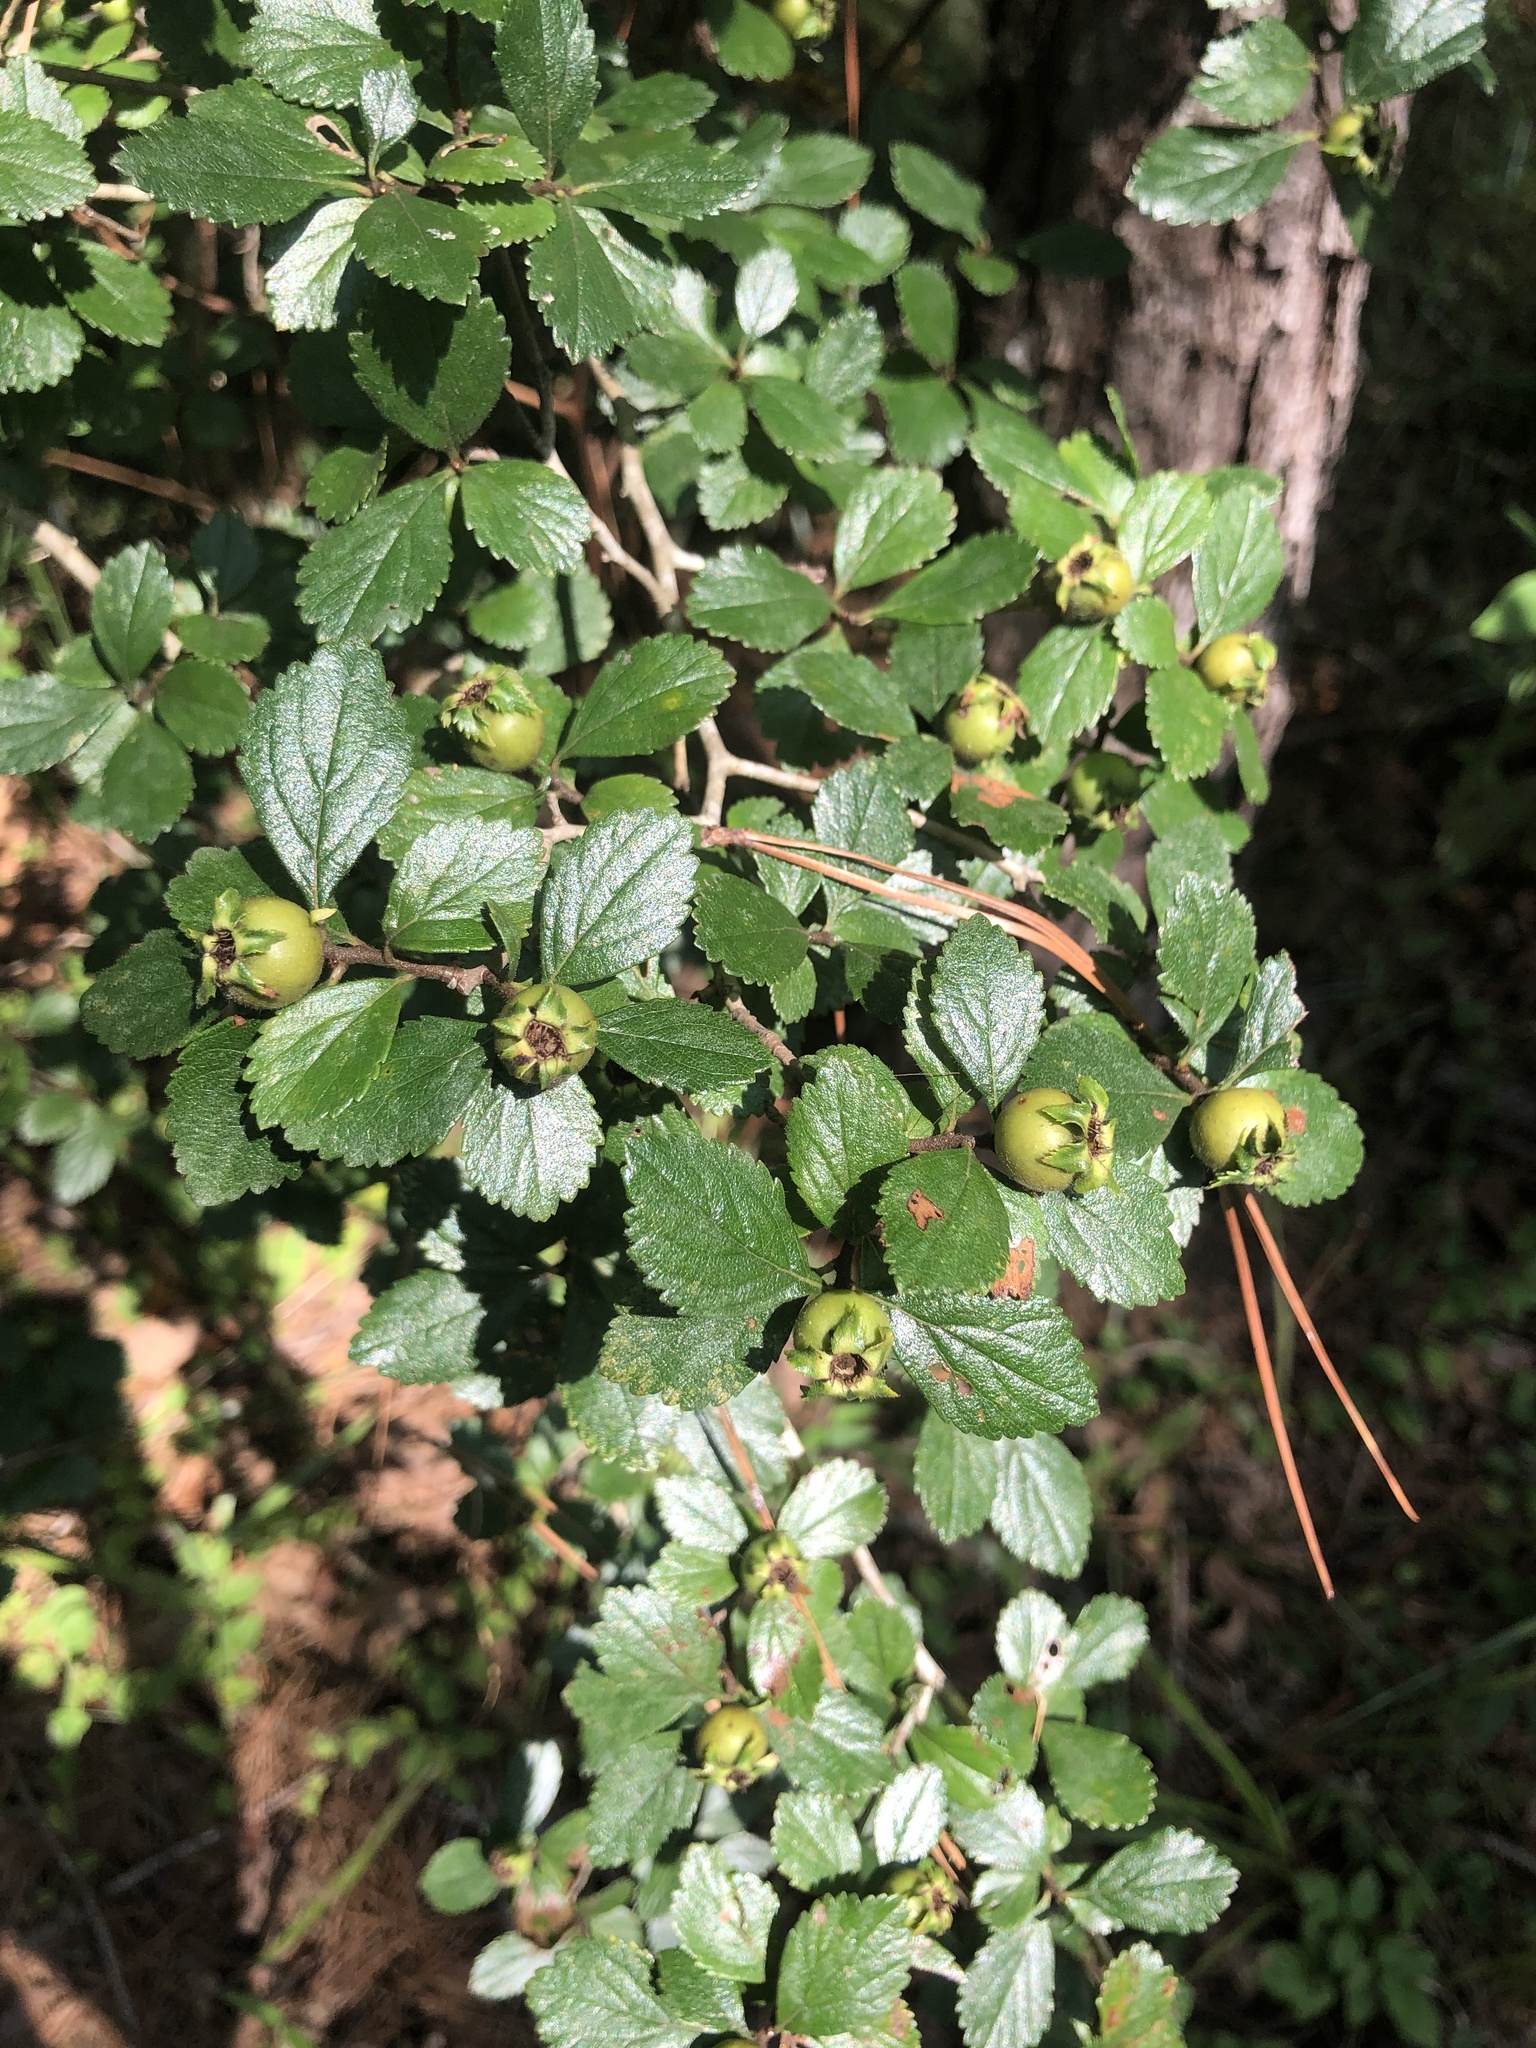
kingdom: Plantae
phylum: Tracheophyta
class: Magnoliopsida
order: Rosales
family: Rosaceae
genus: Crataegus
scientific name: Crataegus uniflora
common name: One-flower hawthorn
